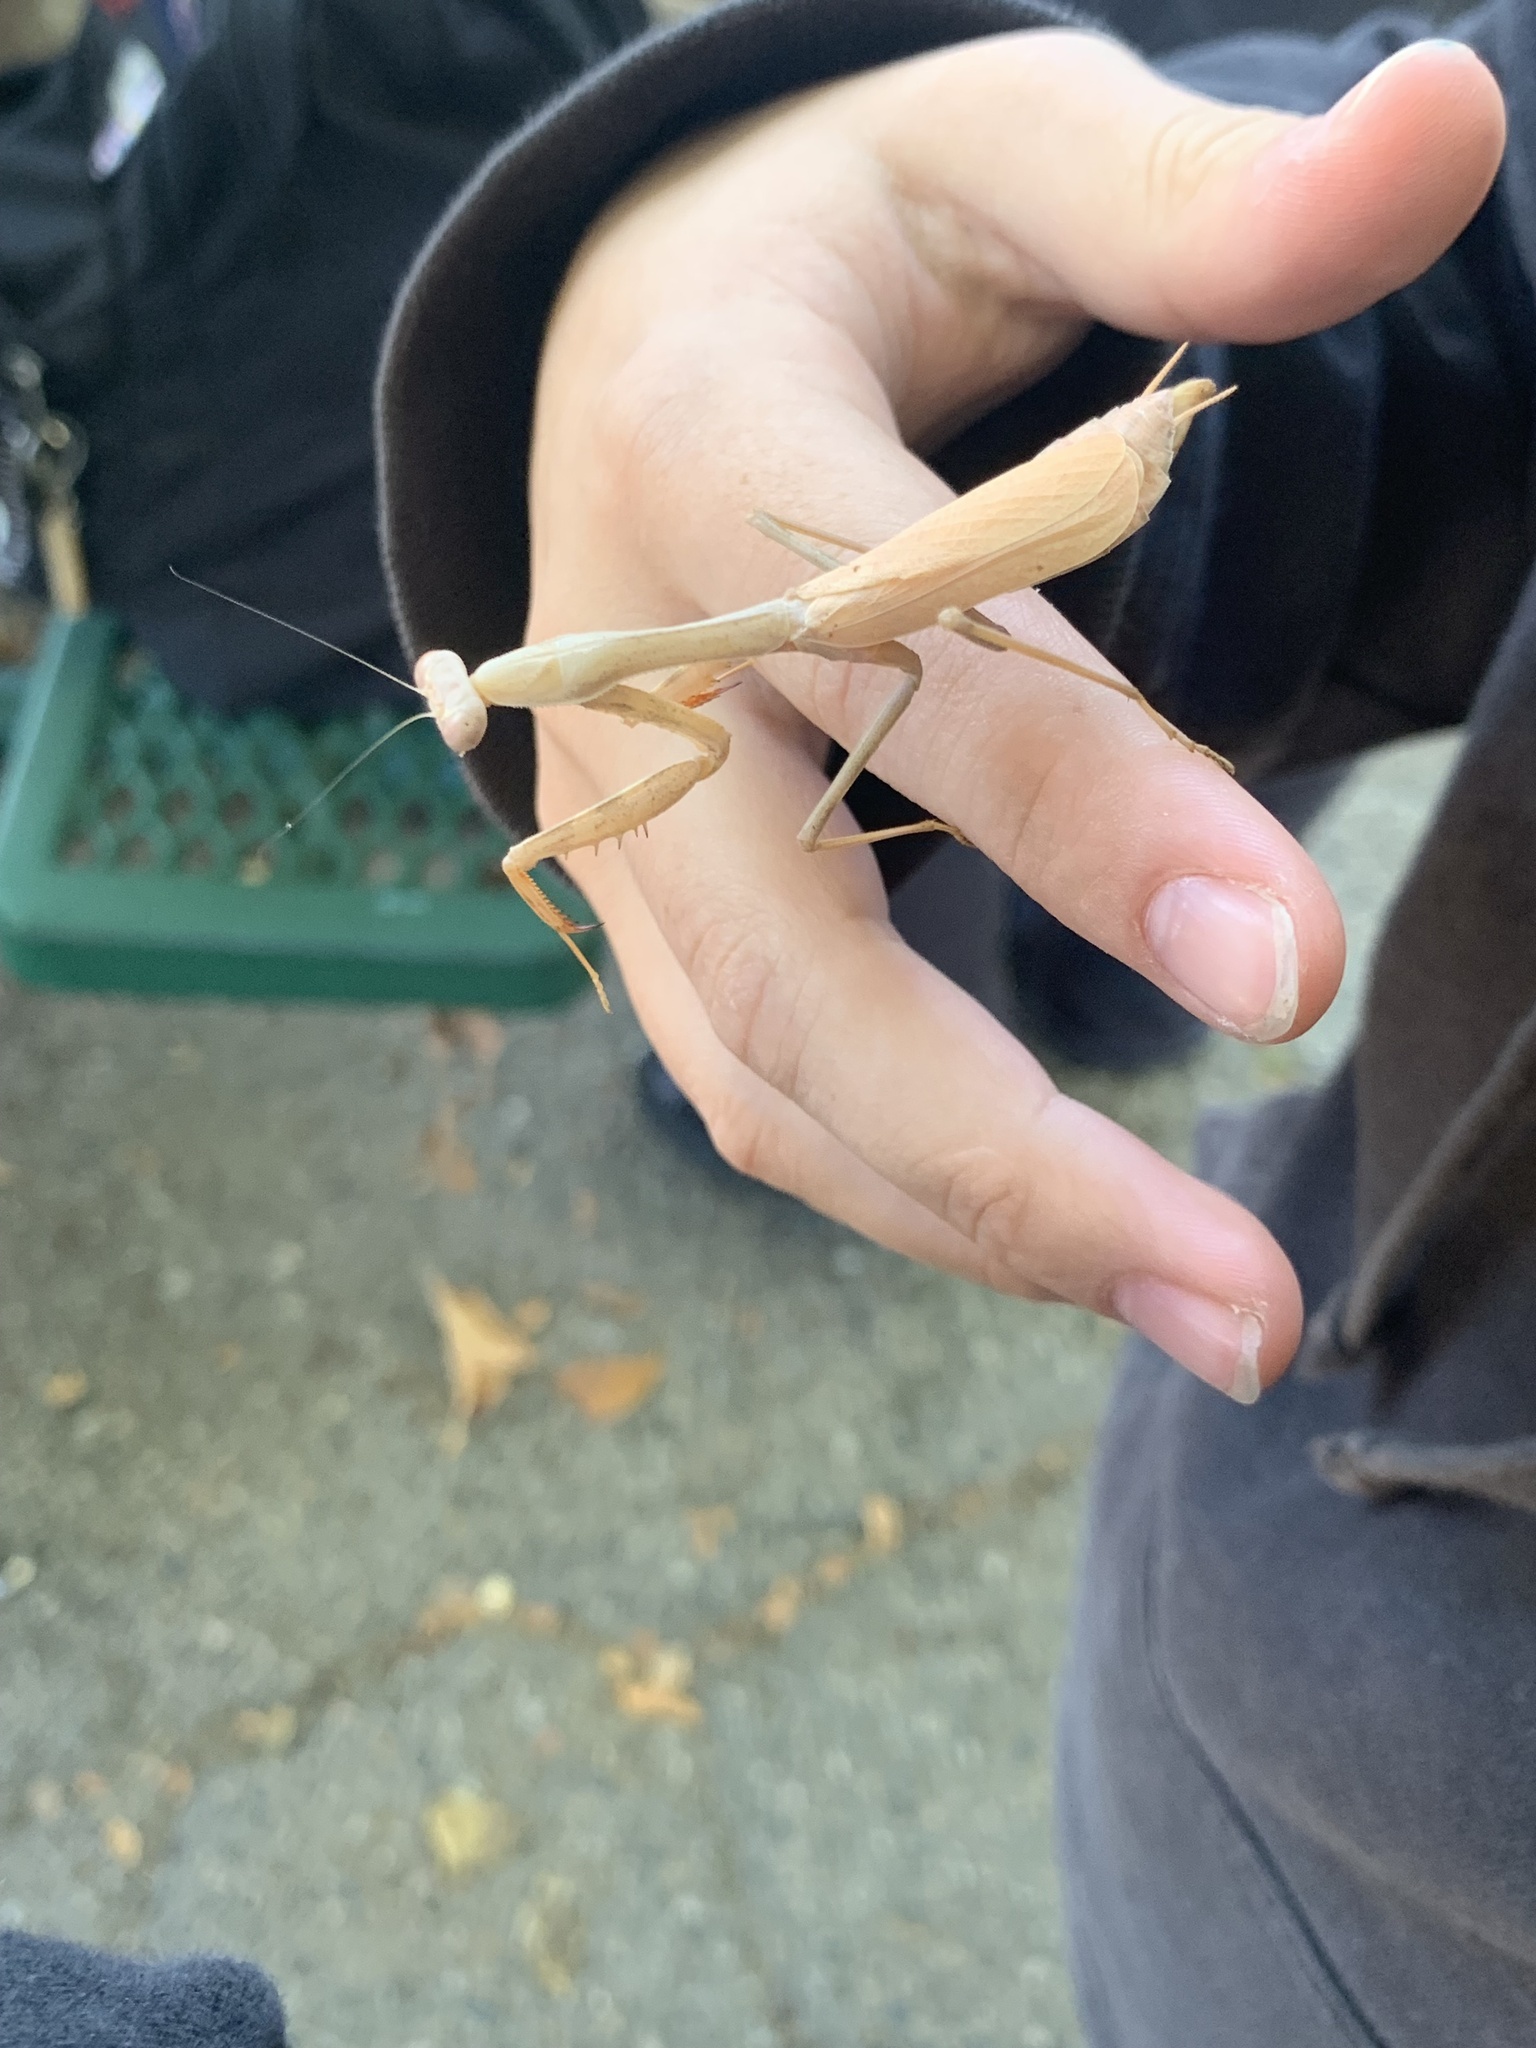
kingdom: Animalia
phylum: Arthropoda
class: Insecta
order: Mantodea
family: Mantidae
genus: Stagmomantis
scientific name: Stagmomantis limbata
